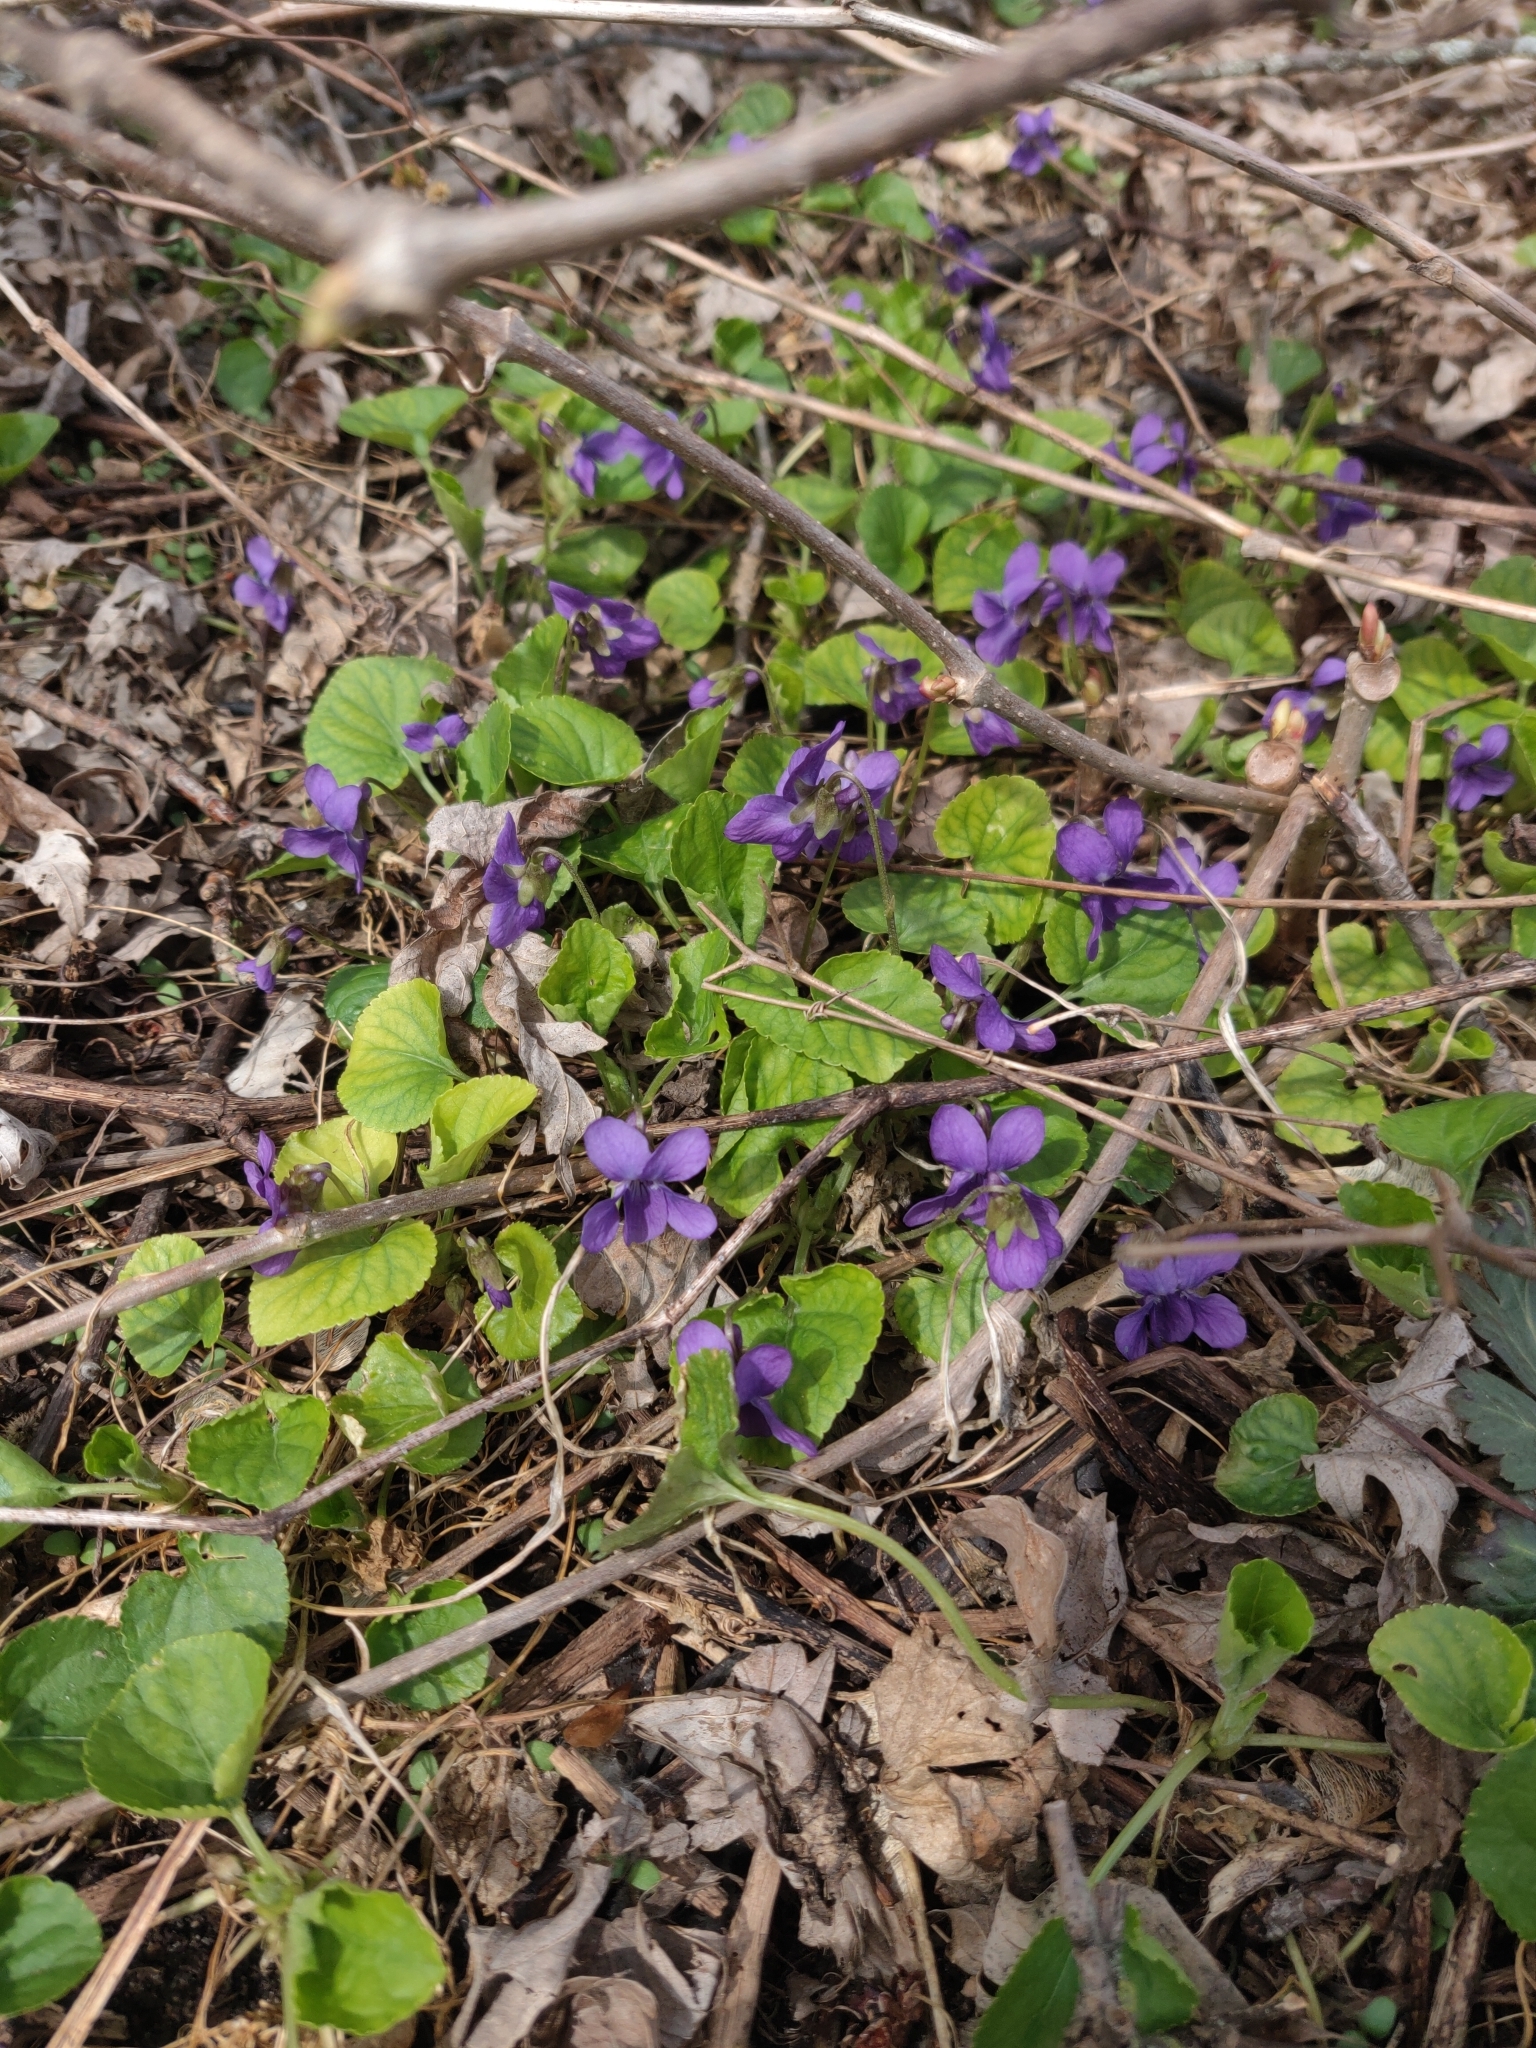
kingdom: Plantae
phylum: Tracheophyta
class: Magnoliopsida
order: Malpighiales
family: Violaceae
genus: Viola
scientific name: Viola odorata
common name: Sweet violet
